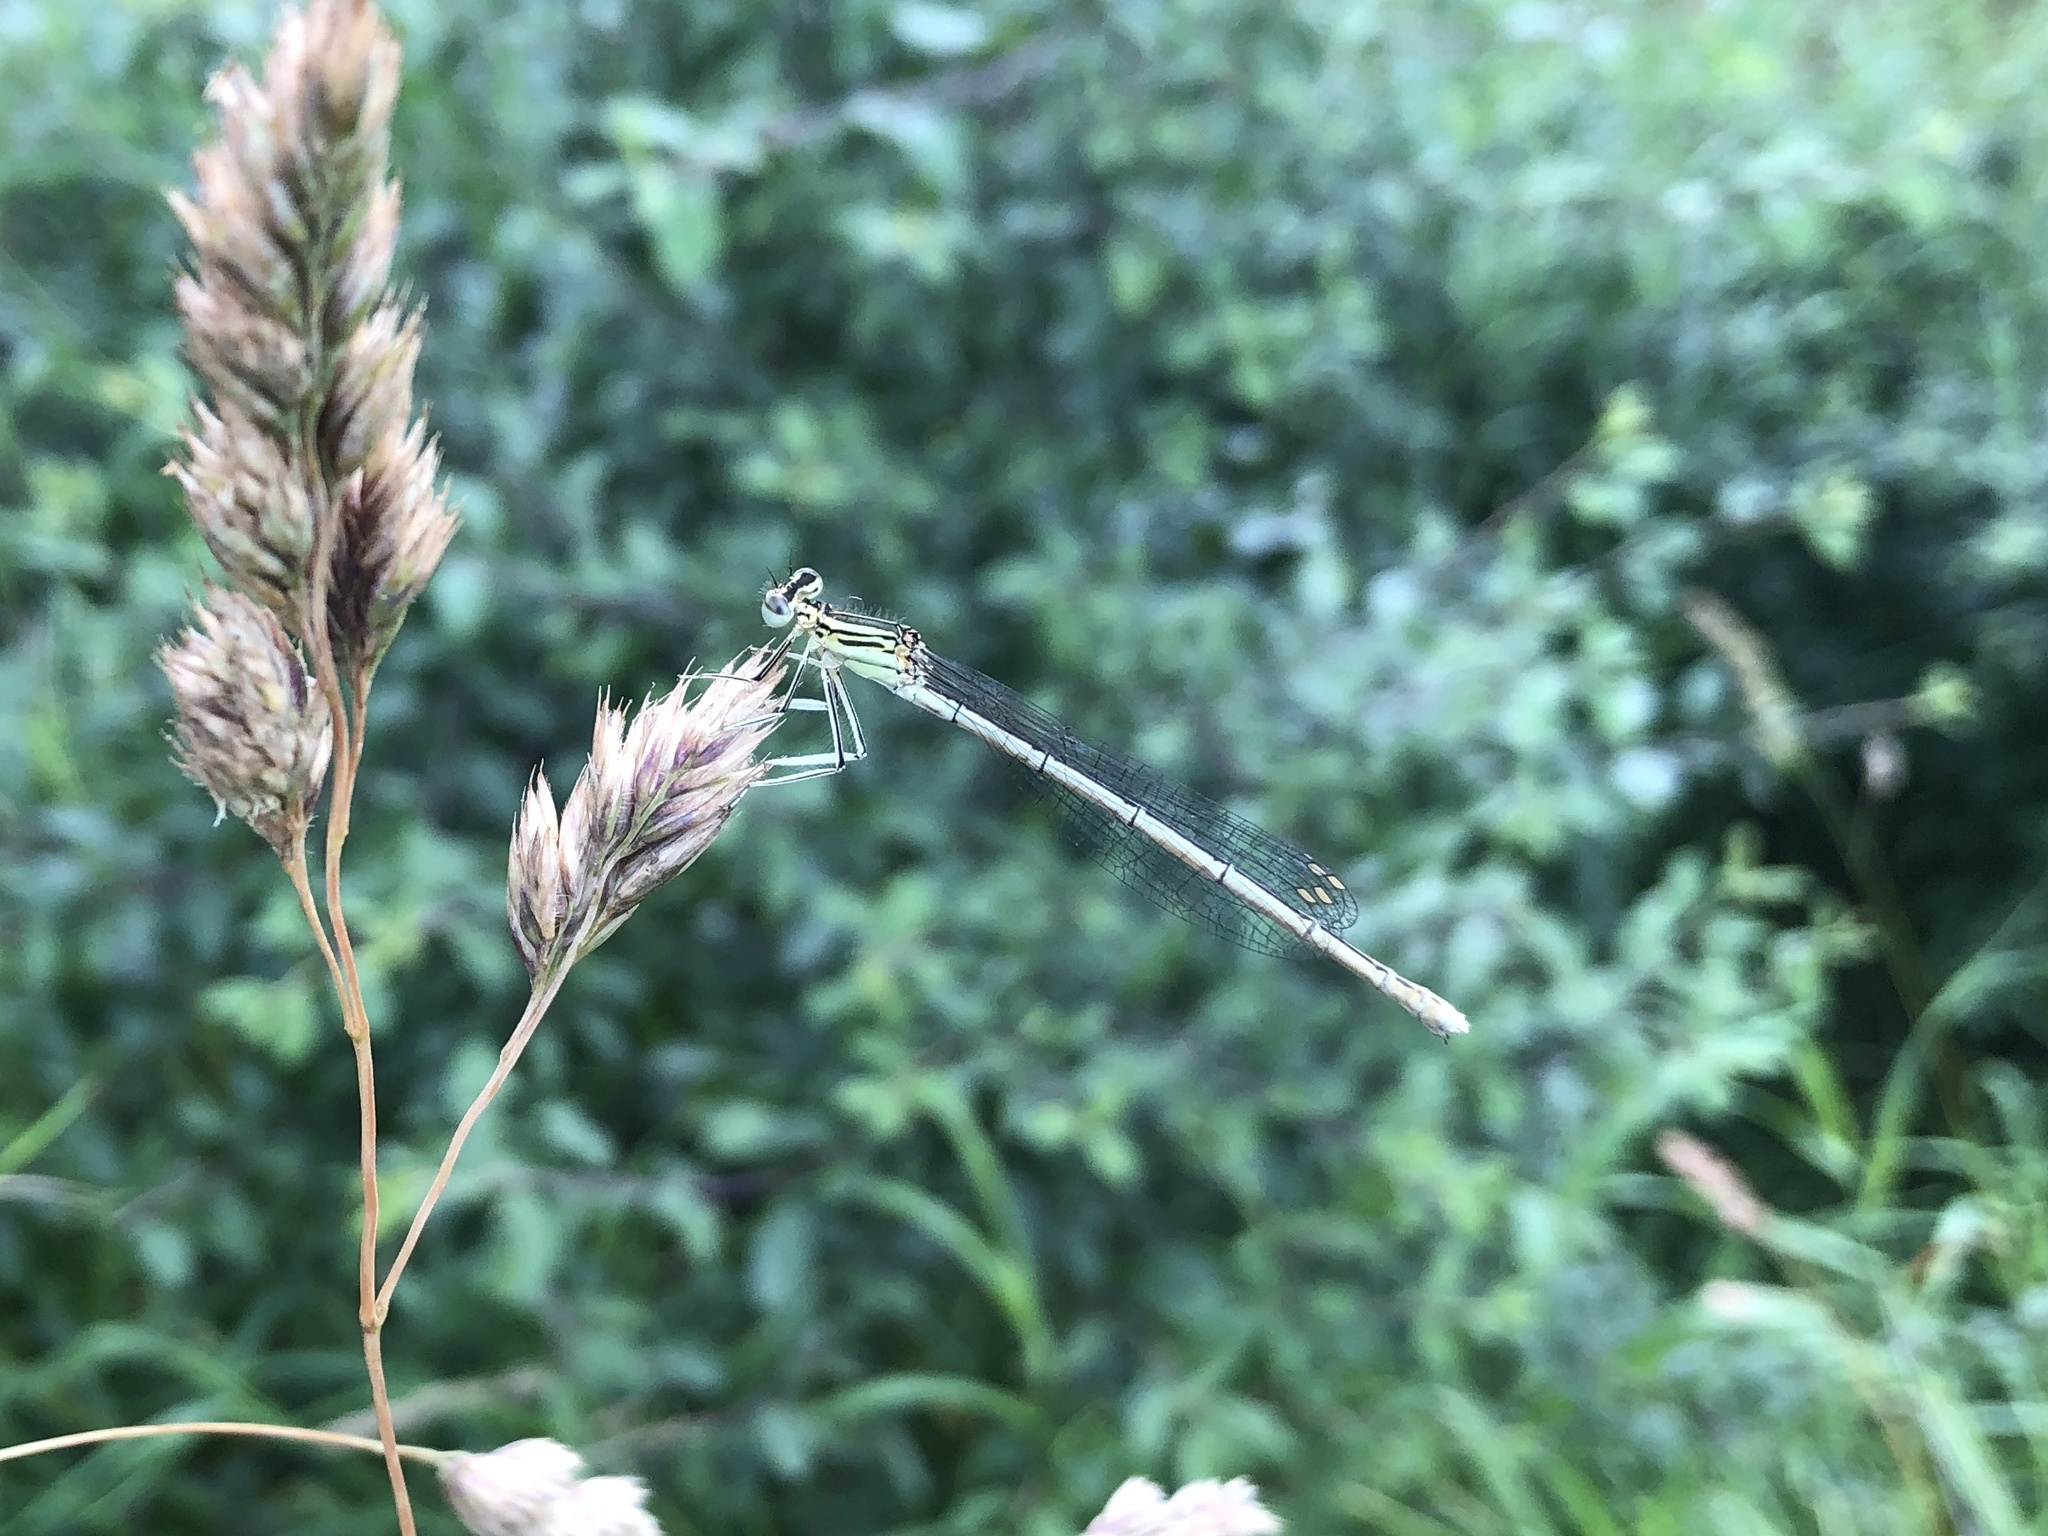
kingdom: Animalia
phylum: Arthropoda
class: Insecta
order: Odonata
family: Platycnemididae
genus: Platycnemis
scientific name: Platycnemis pennipes
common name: White-legged damselfly
